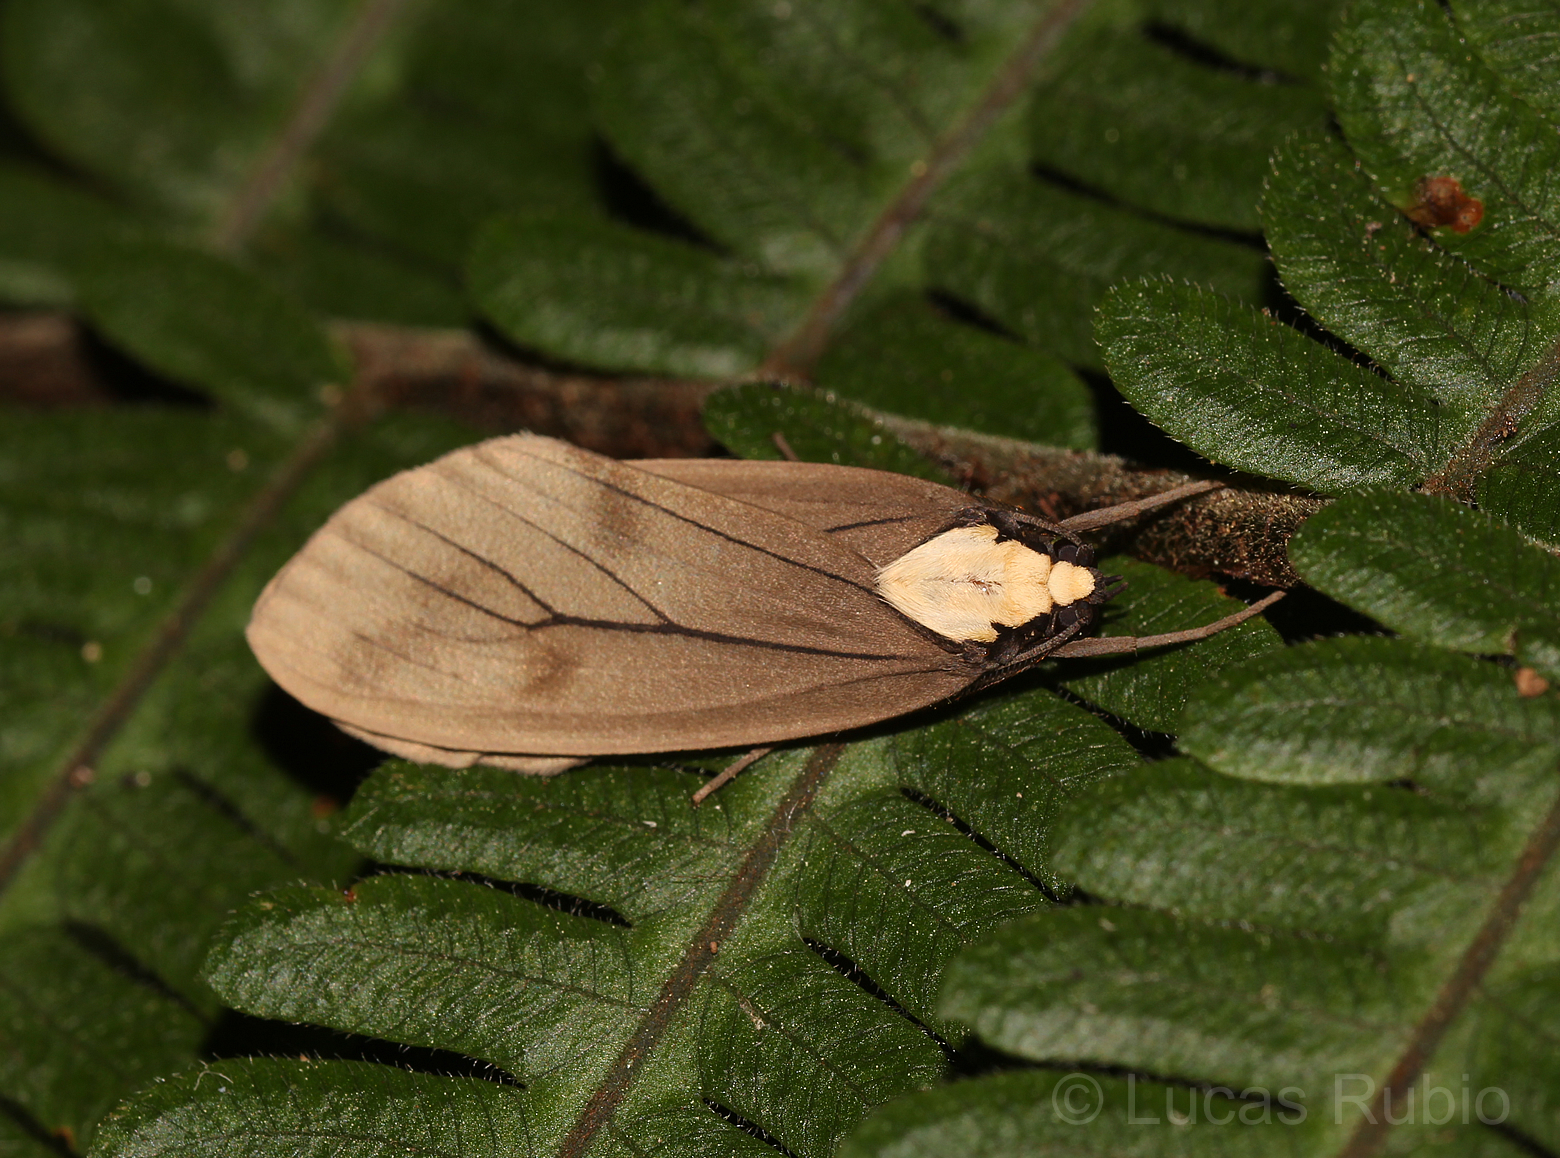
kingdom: Animalia
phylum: Arthropoda
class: Insecta
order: Lepidoptera
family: Erebidae
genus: Opharus
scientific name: Opharus basalis
